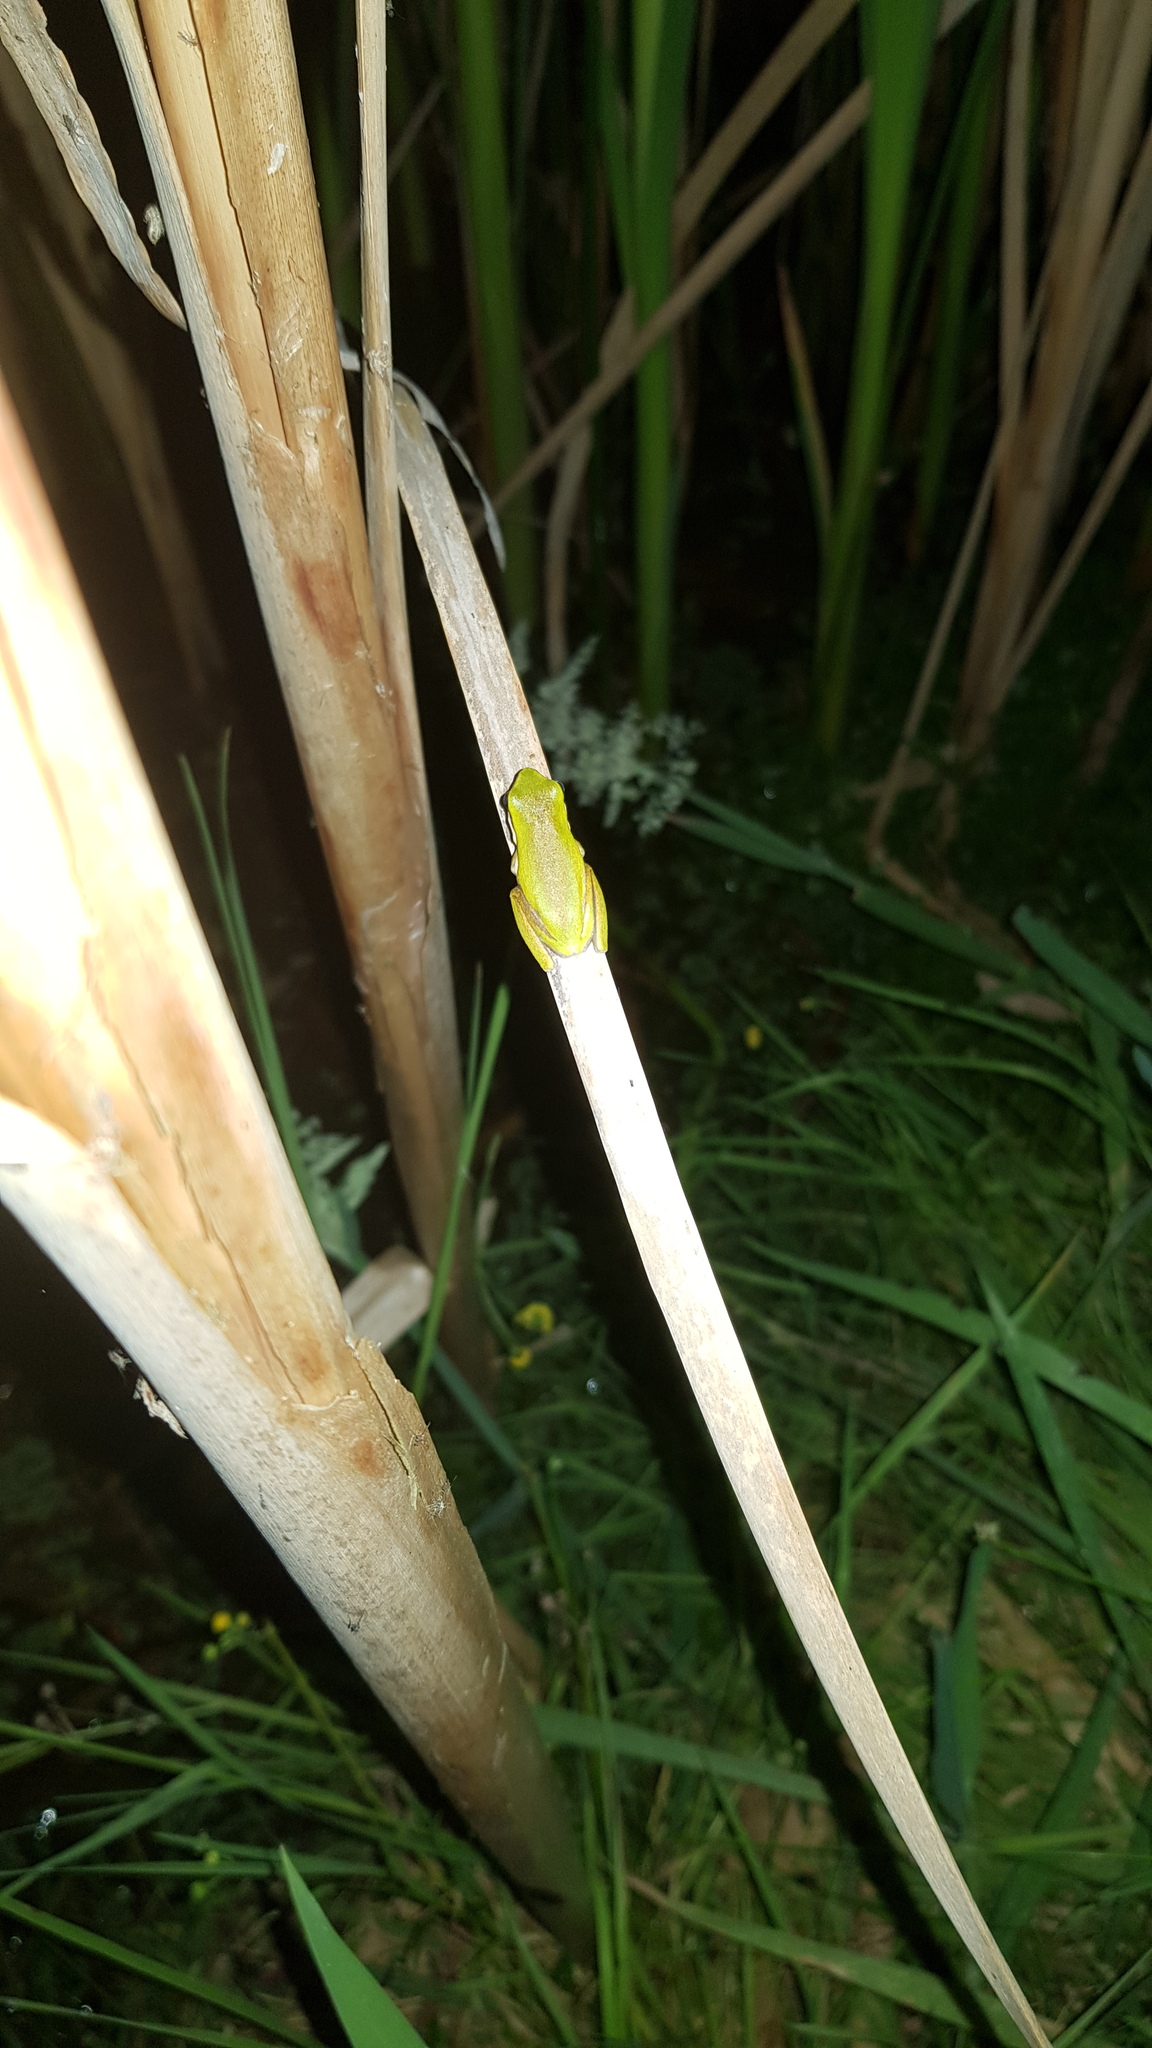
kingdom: Animalia
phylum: Chordata
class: Amphibia
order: Anura
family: Pelodryadidae
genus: Litoria
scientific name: Litoria fallax
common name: Eastern dwarf treefrog
